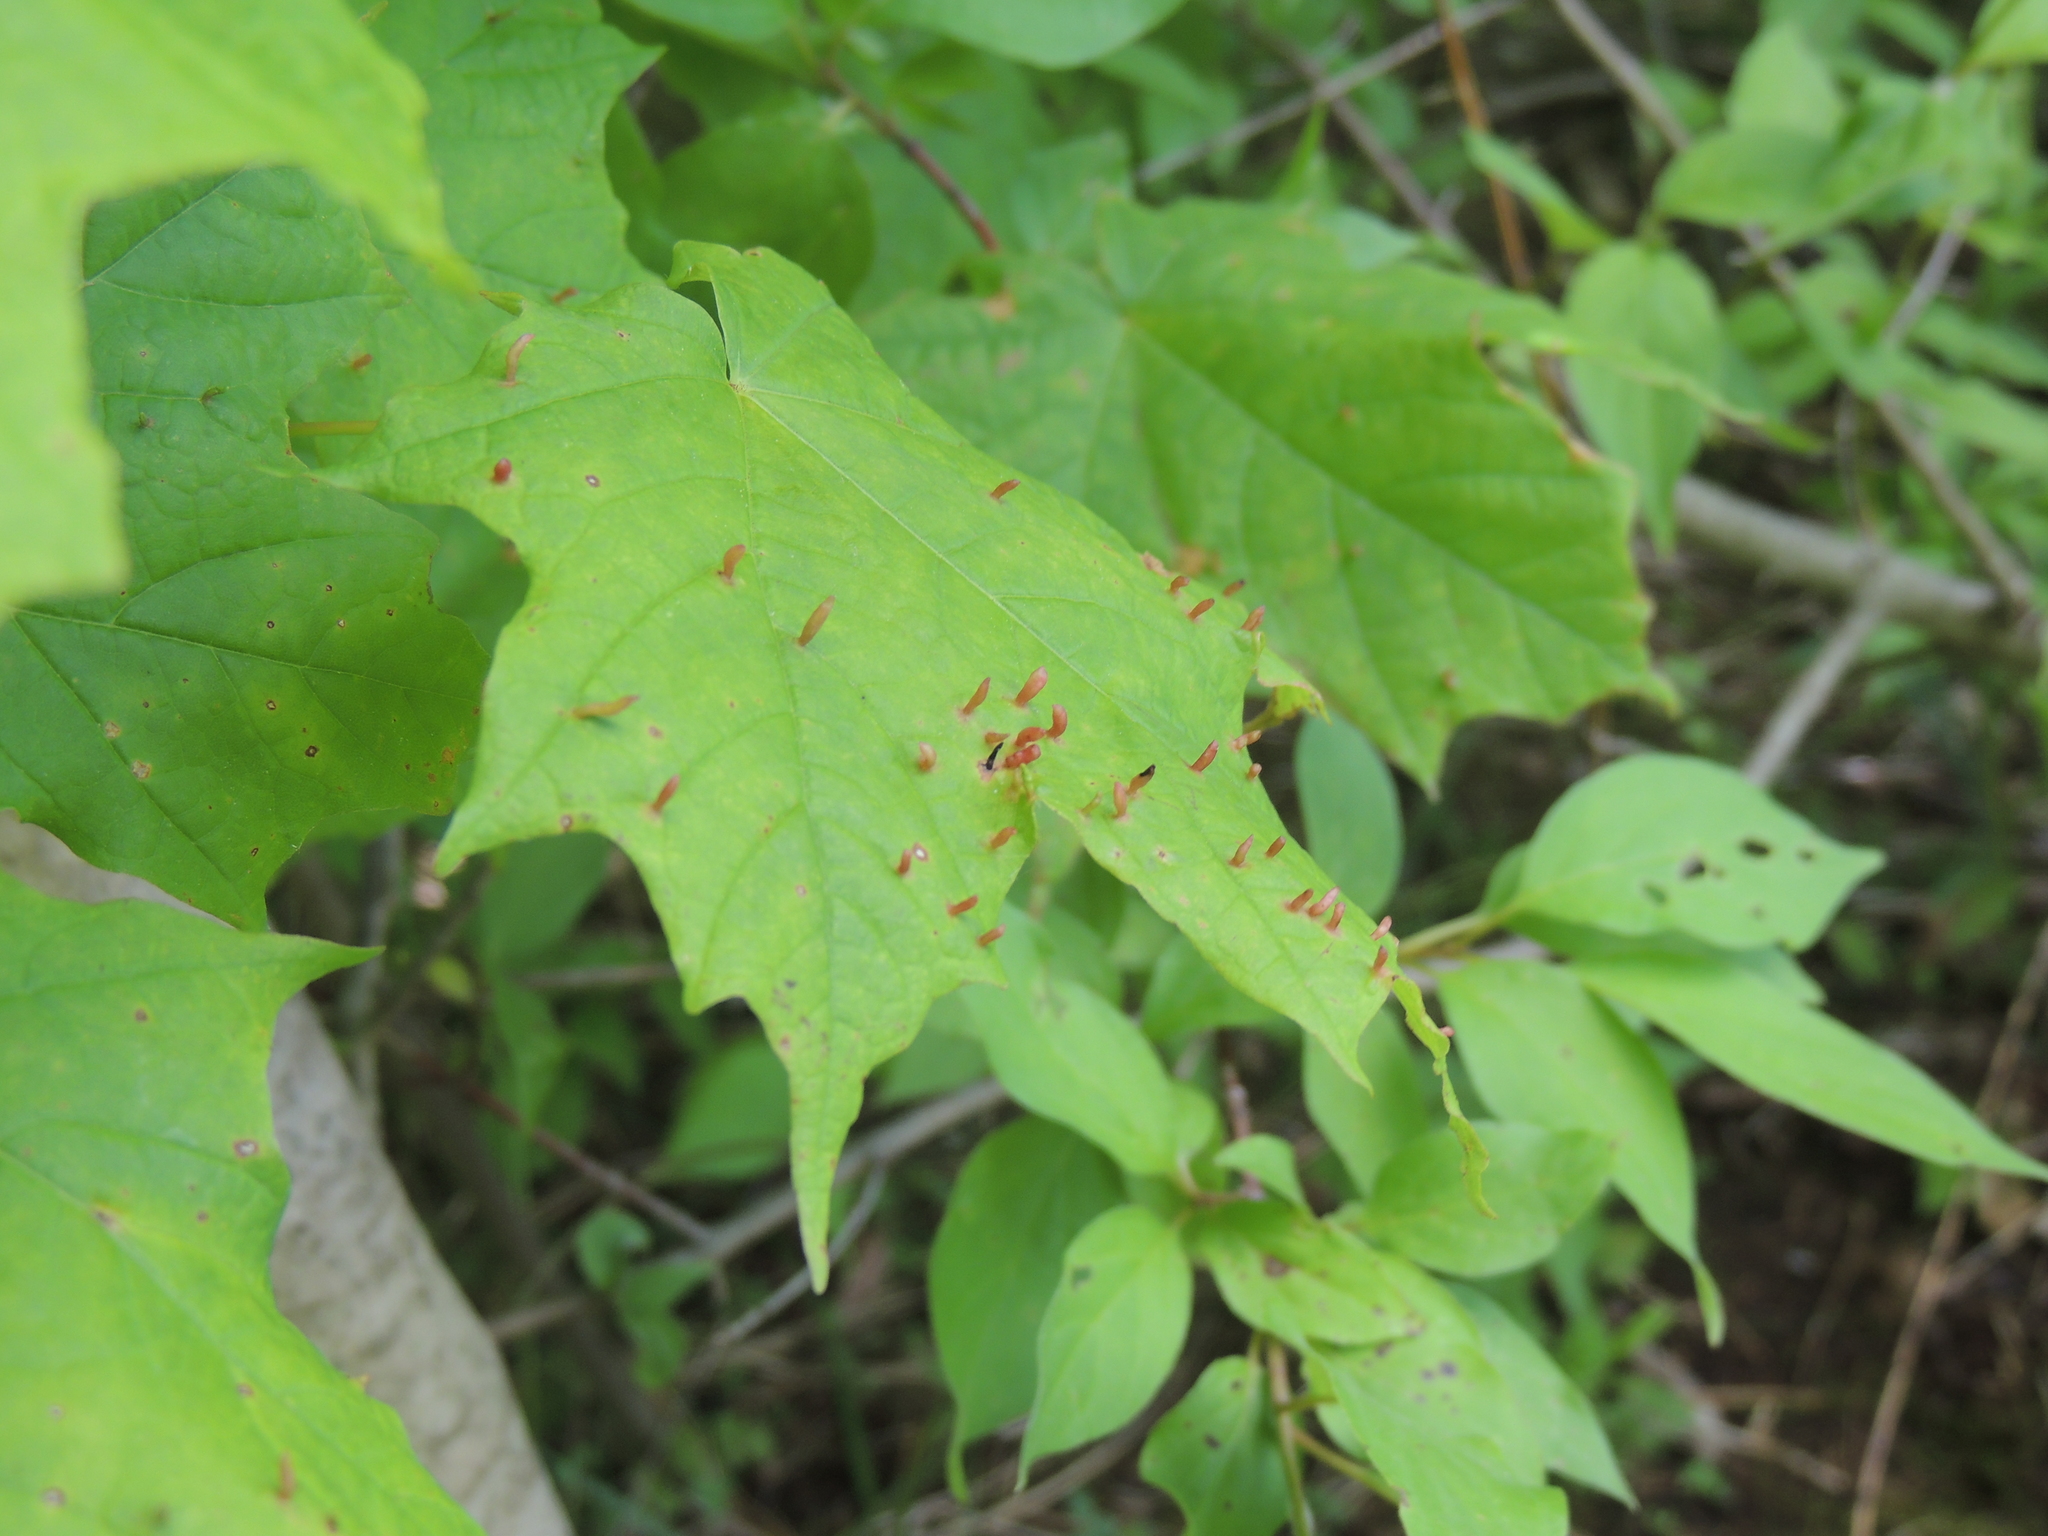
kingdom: Animalia
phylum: Arthropoda
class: Arachnida
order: Trombidiformes
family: Eriophyidae
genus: Vasates
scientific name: Vasates aceriscrumena
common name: Maple spindle gall mite
